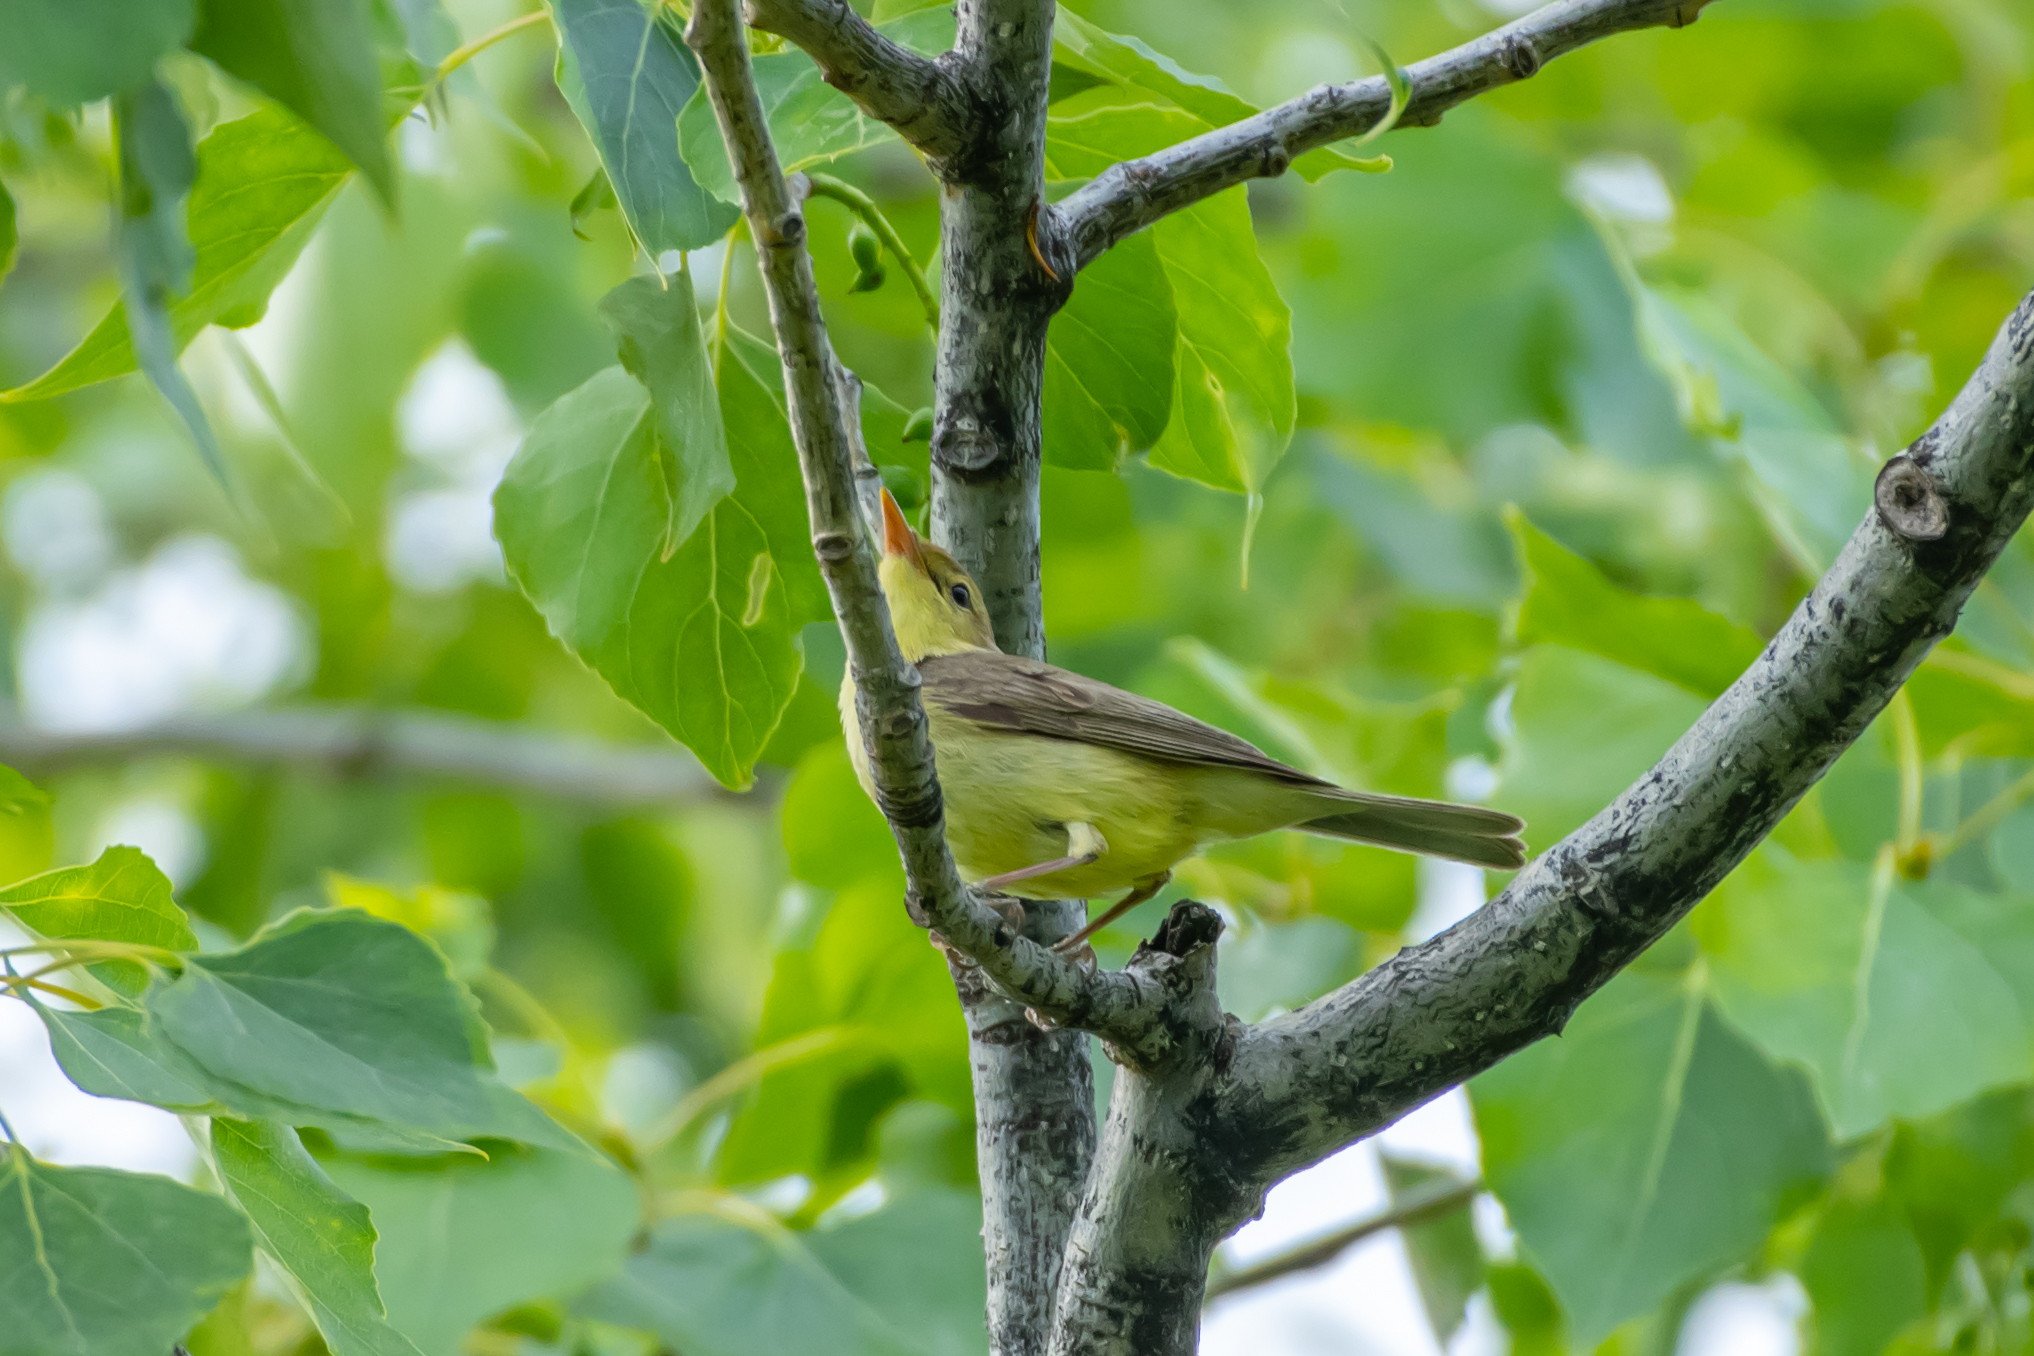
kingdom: Animalia
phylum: Chordata
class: Aves
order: Passeriformes
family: Acrocephalidae
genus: Hippolais
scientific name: Hippolais polyglotta
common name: Melodious warbler
